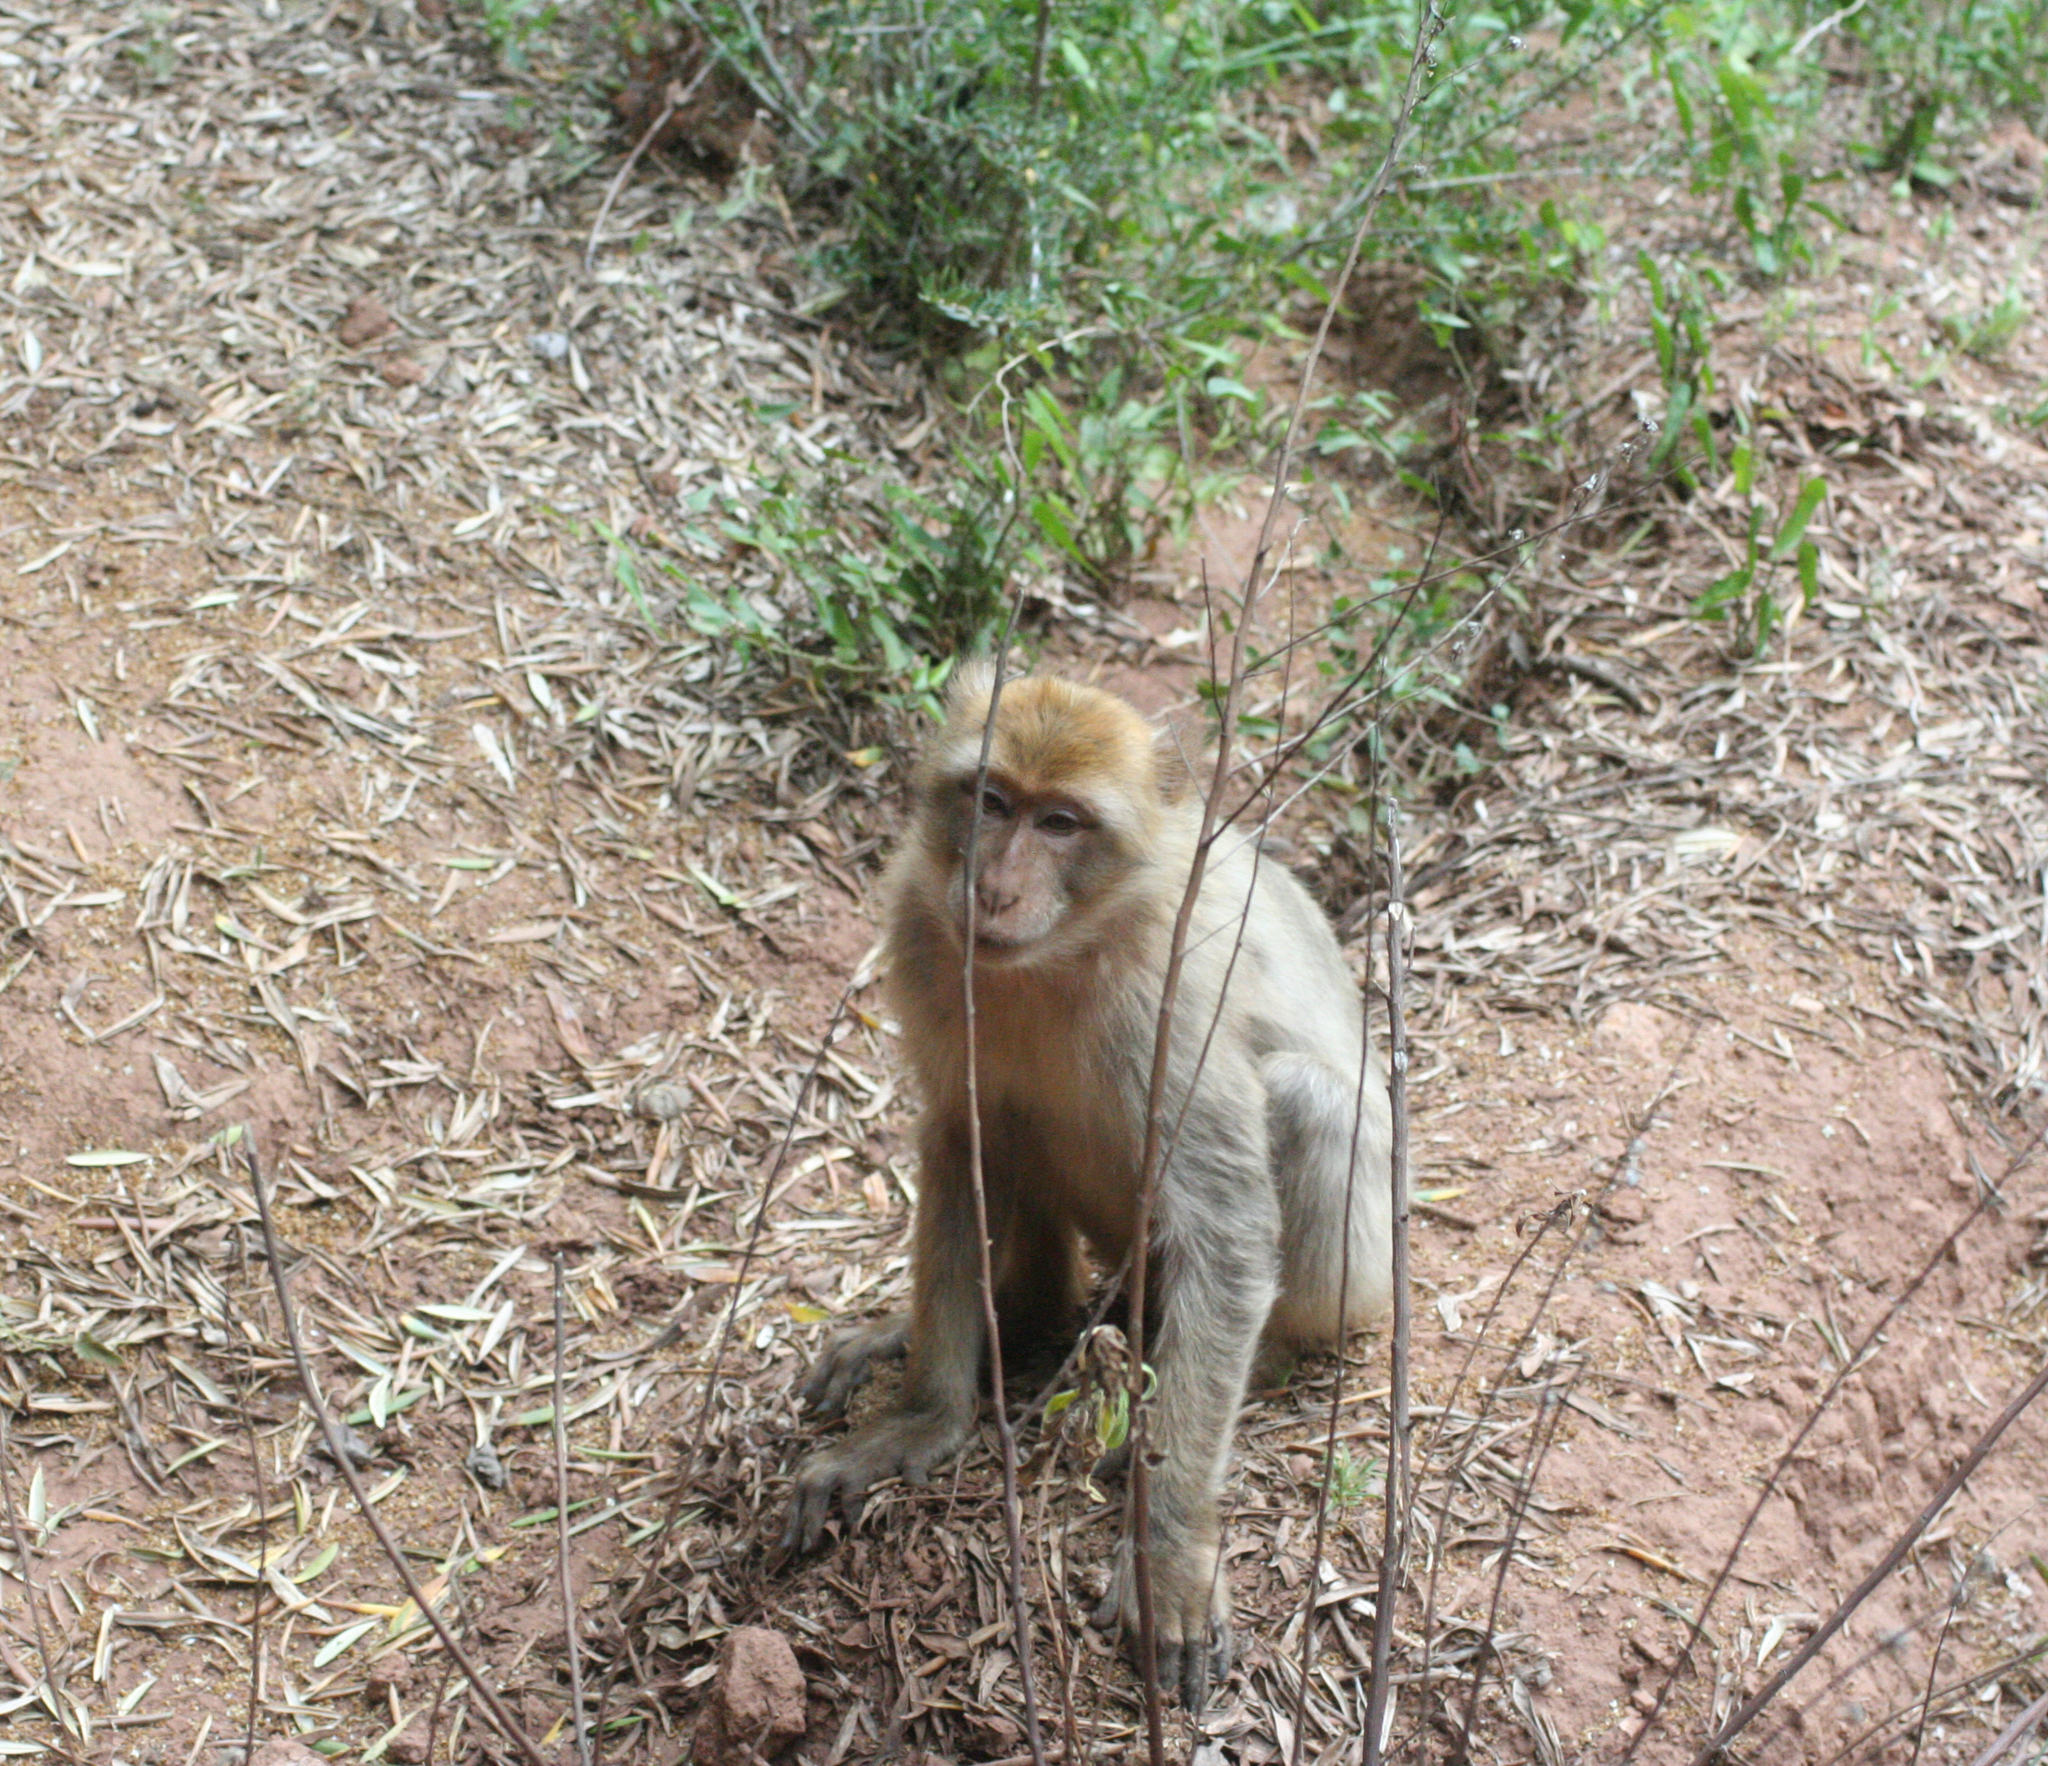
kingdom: Animalia
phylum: Chordata
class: Mammalia
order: Primates
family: Cercopithecidae
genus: Macaca
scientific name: Macaca sylvanus
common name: Barbary macaque
